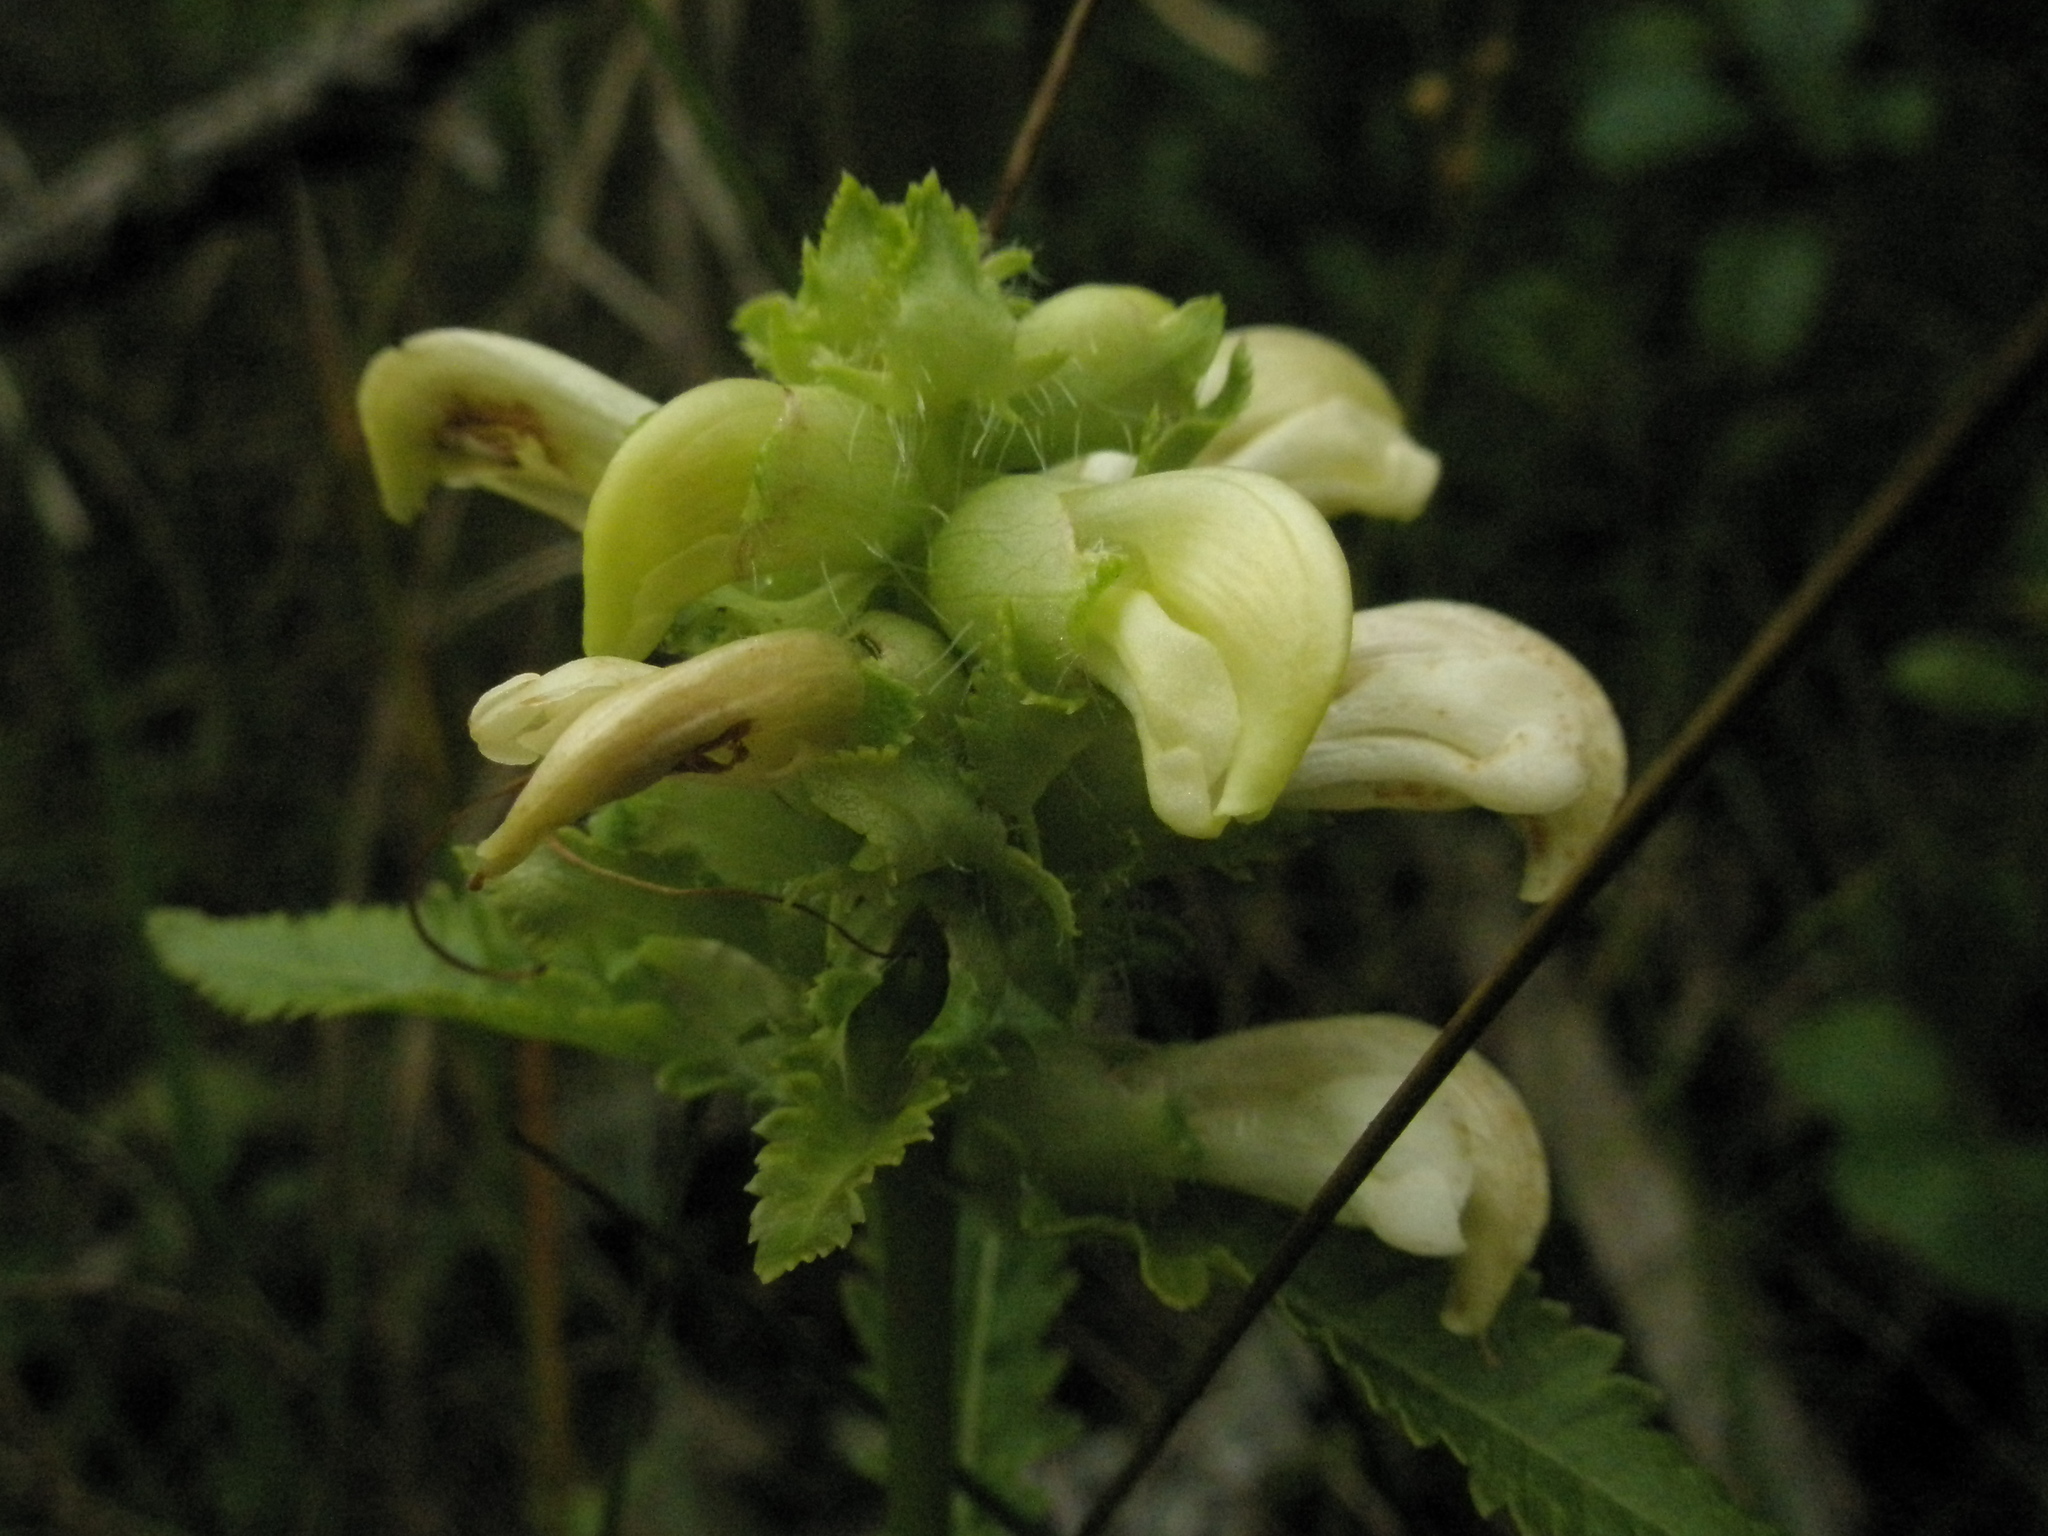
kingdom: Plantae
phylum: Tracheophyta
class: Magnoliopsida
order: Lamiales
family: Orobanchaceae
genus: Pedicularis
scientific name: Pedicularis lanceolata
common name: Swamp lousewort
